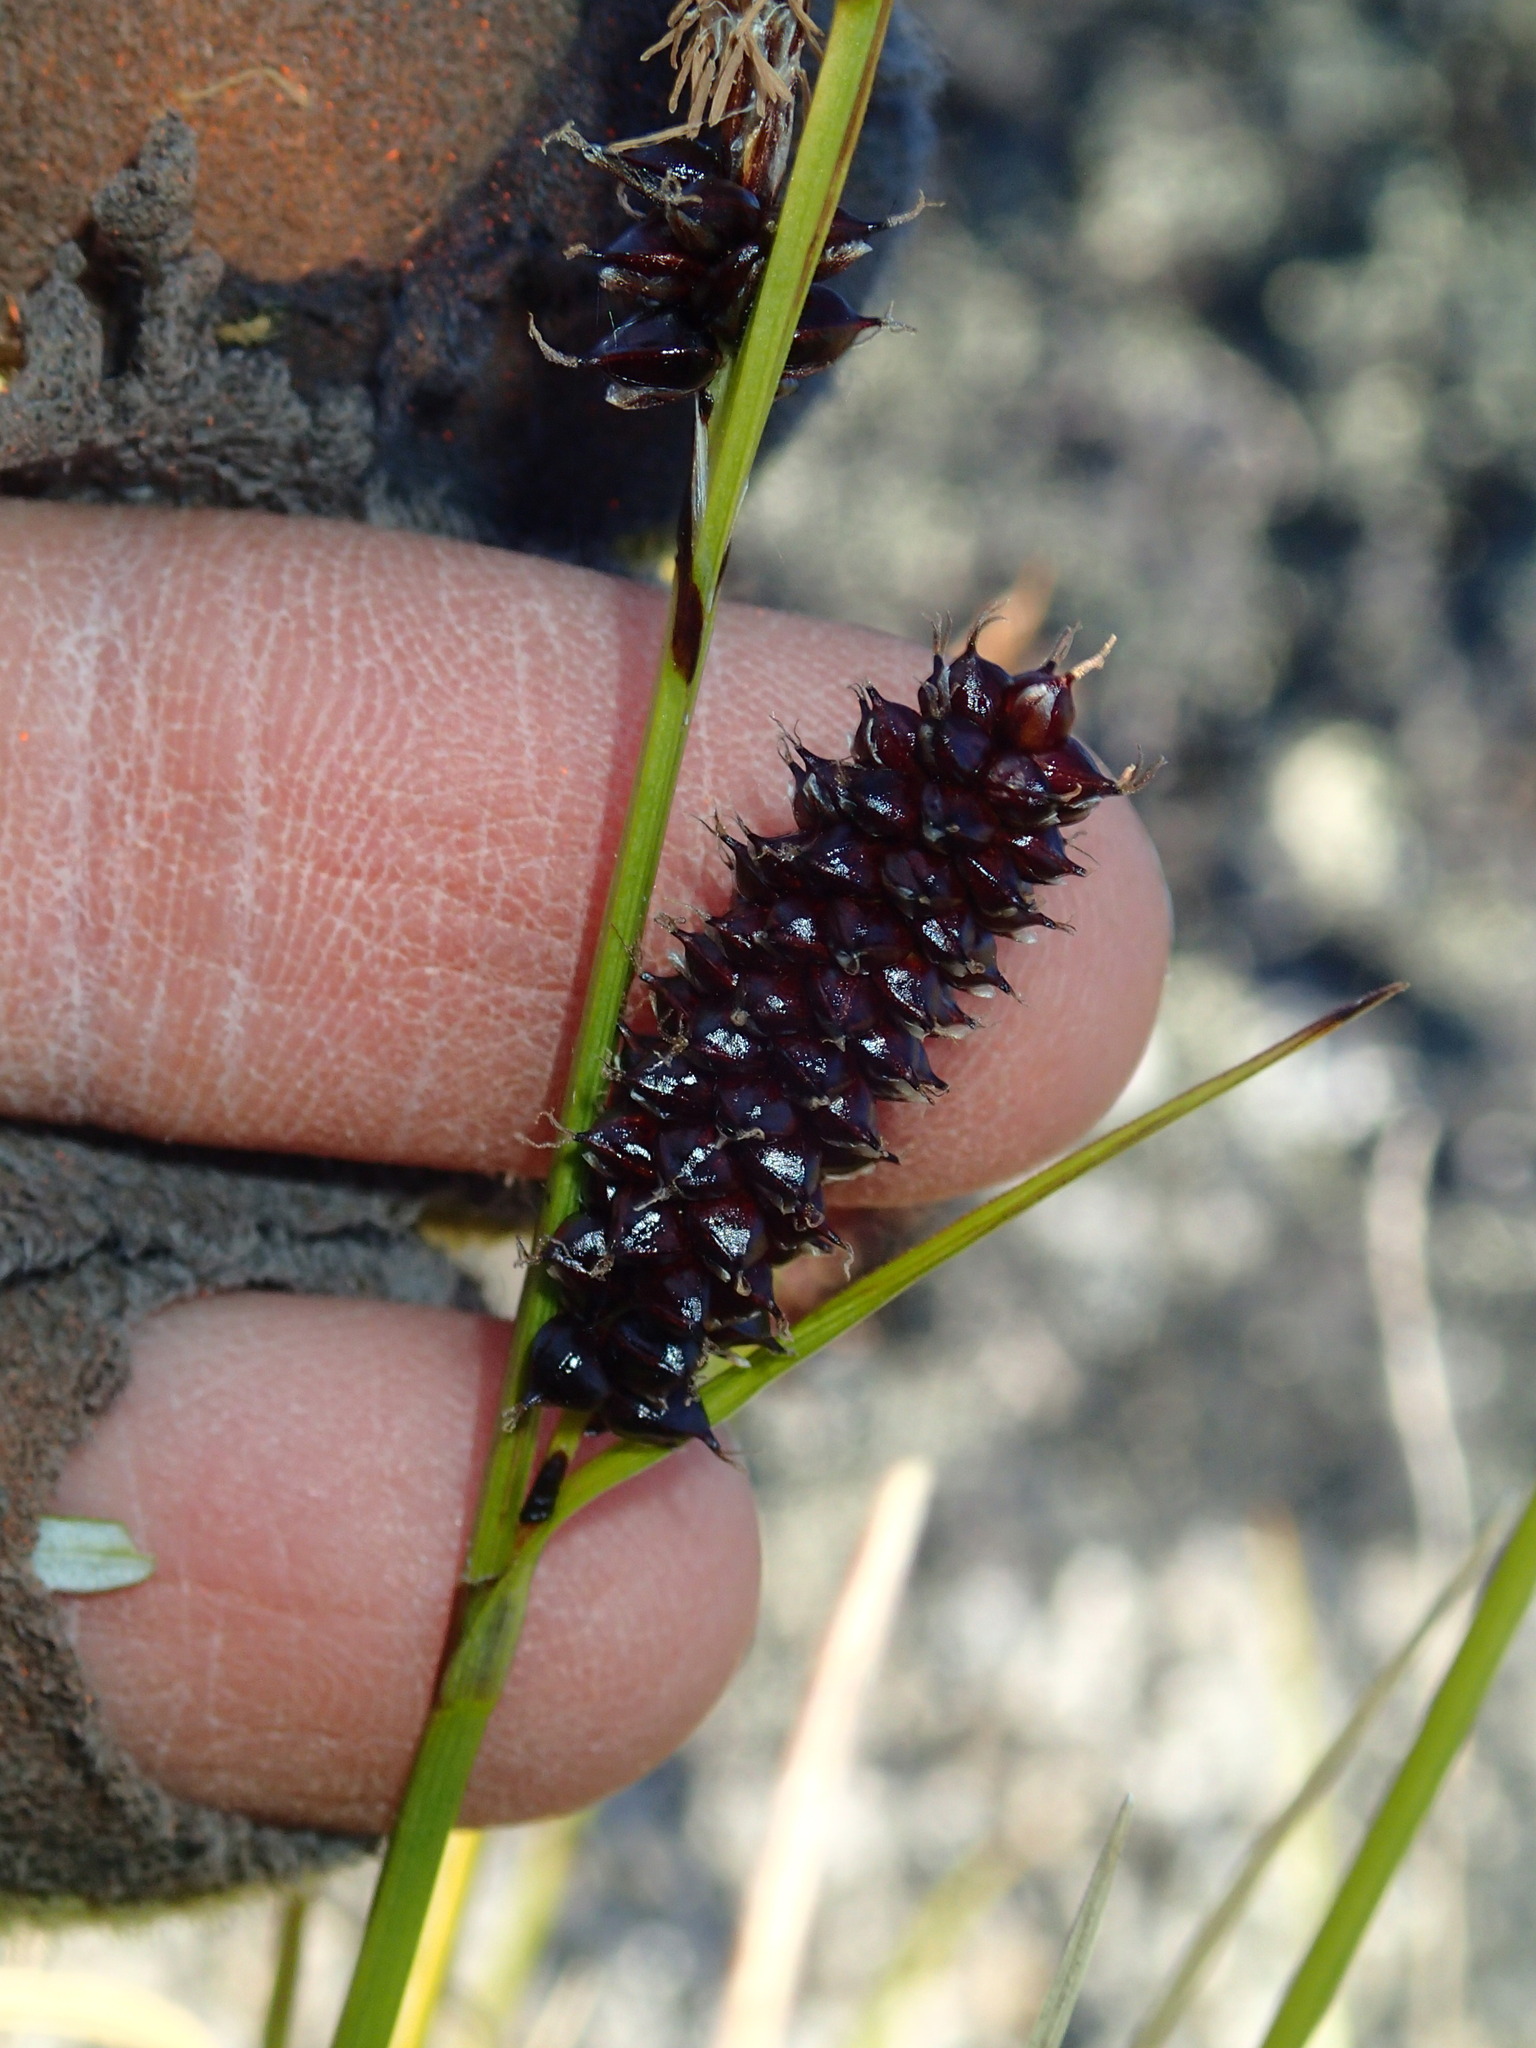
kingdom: Plantae
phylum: Tracheophyta
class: Liliopsida
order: Poales
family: Cyperaceae
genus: Carex
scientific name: Carex membranacea
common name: Fragile sedge
